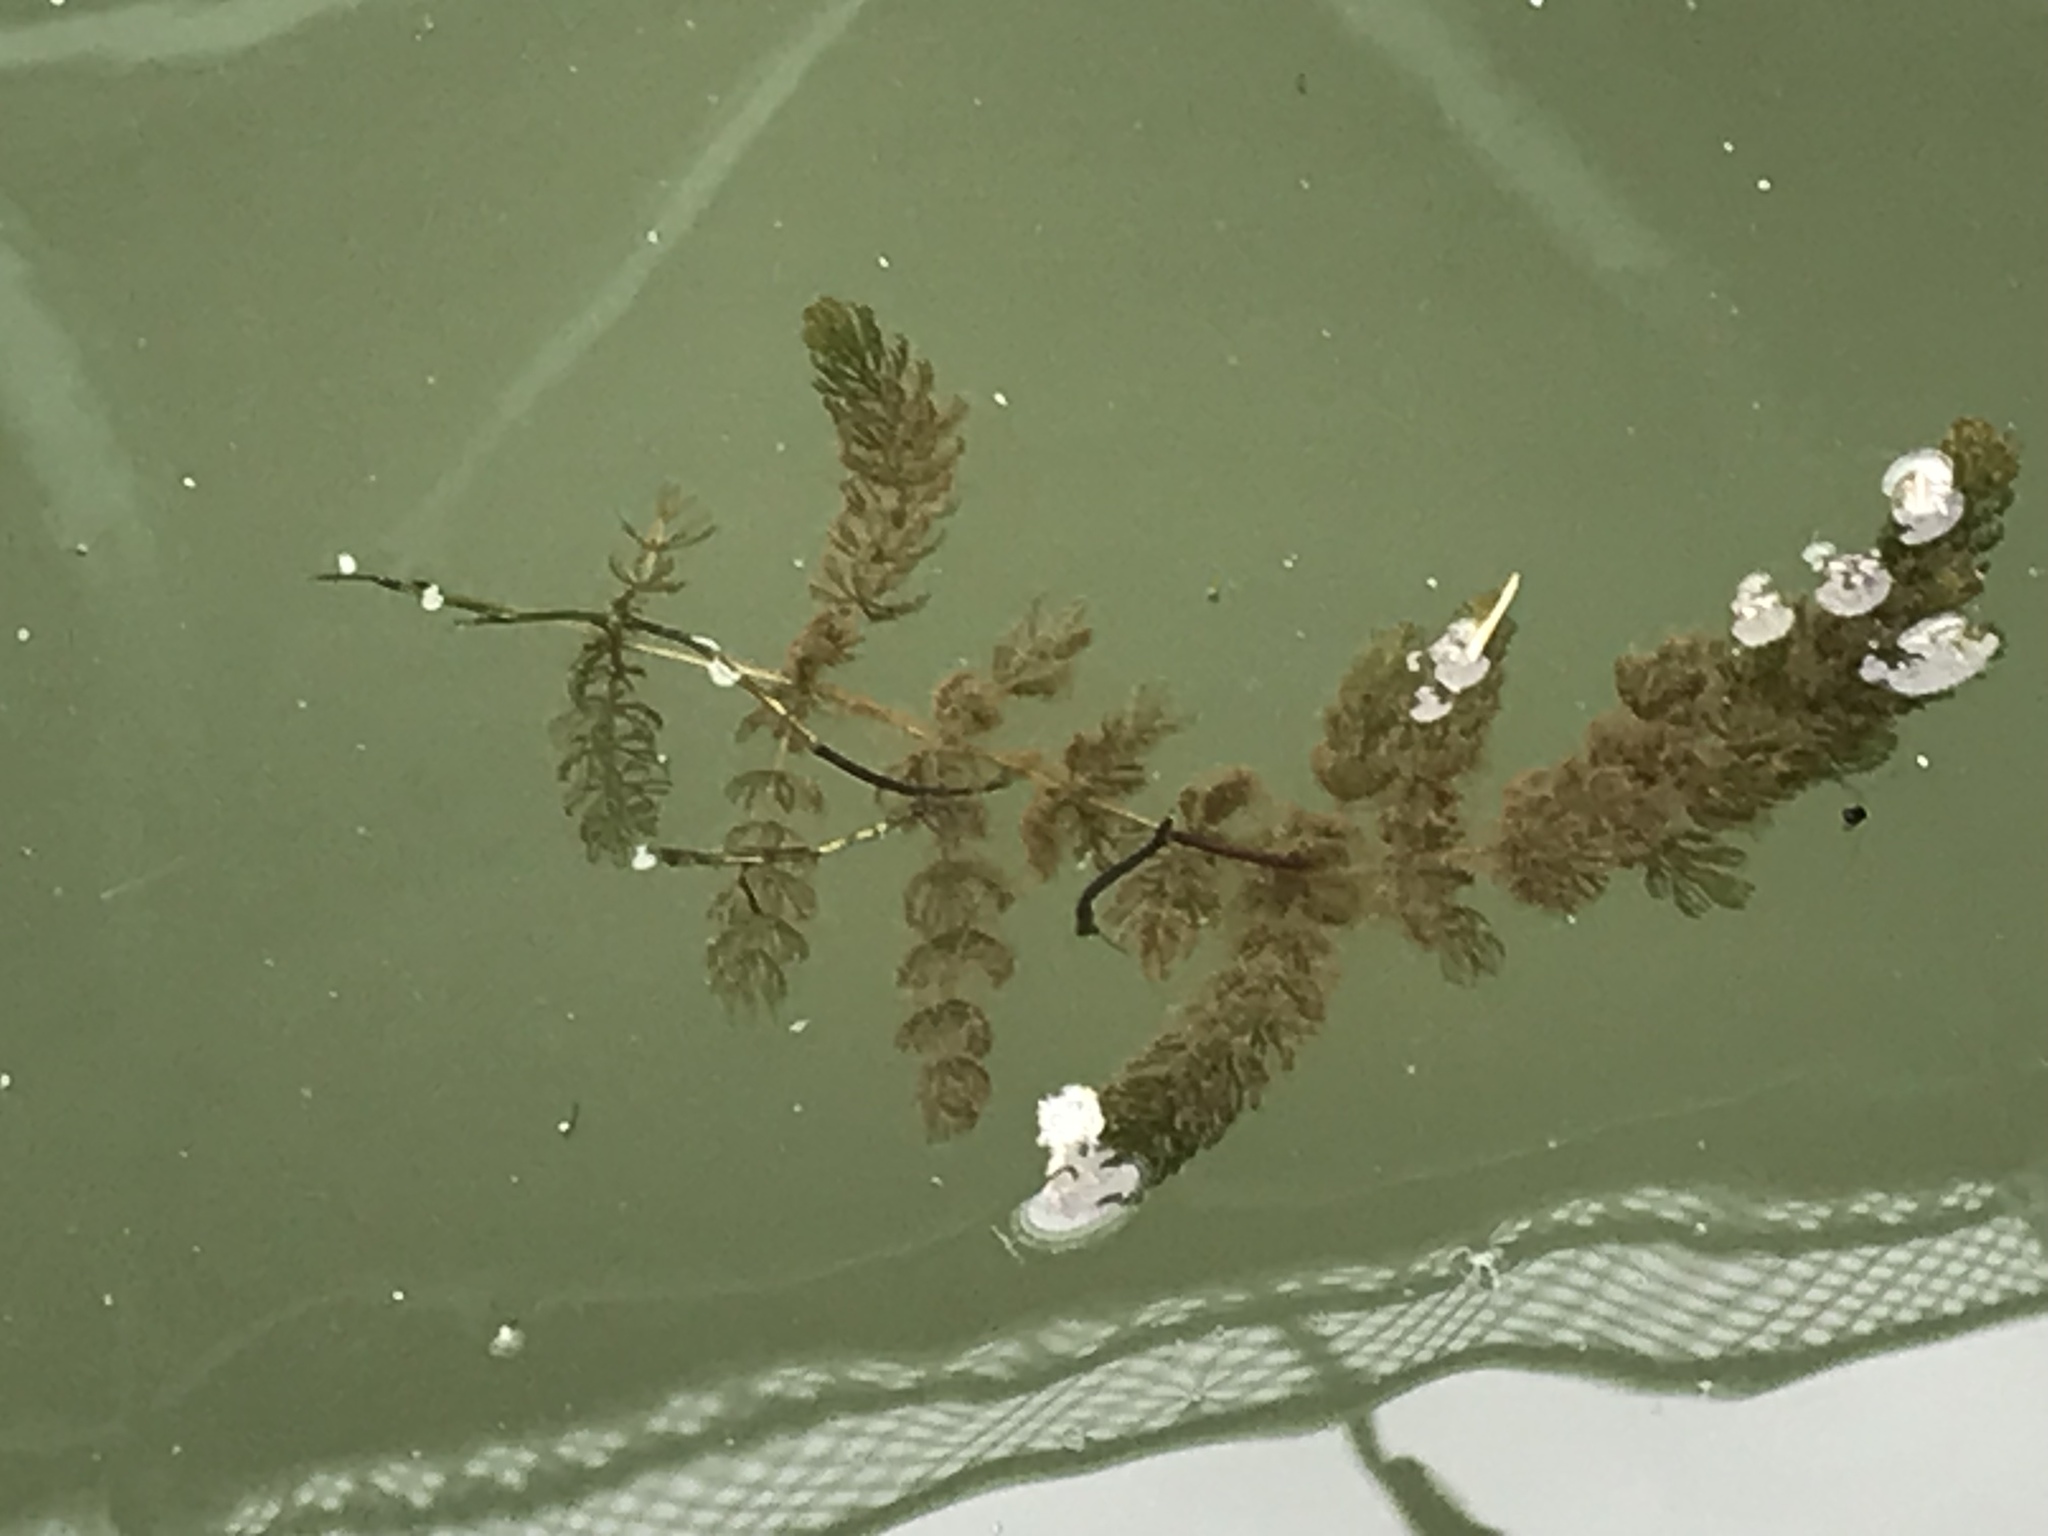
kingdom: Plantae
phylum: Tracheophyta
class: Magnoliopsida
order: Ceratophyllales
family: Ceratophyllaceae
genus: Ceratophyllum
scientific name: Ceratophyllum demersum
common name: Rigid hornwort
